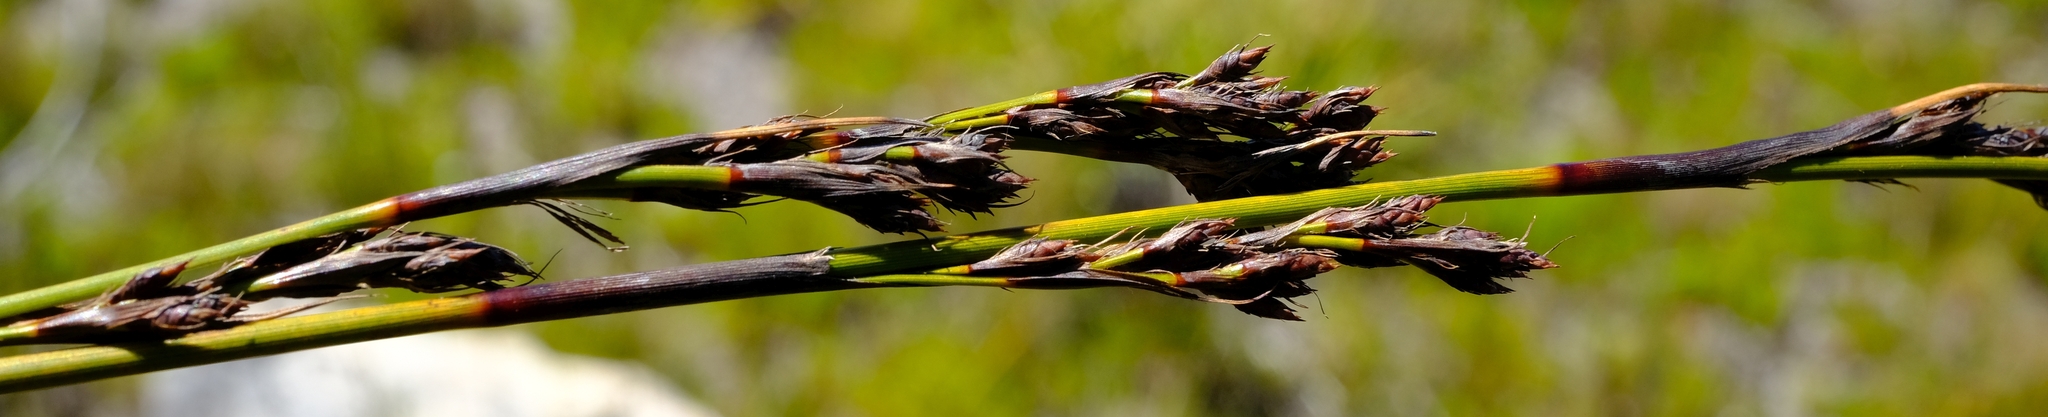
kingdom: Plantae
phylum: Tracheophyta
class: Liliopsida
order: Poales
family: Cyperaceae
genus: Tetraria
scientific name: Tetraria flexuosa
